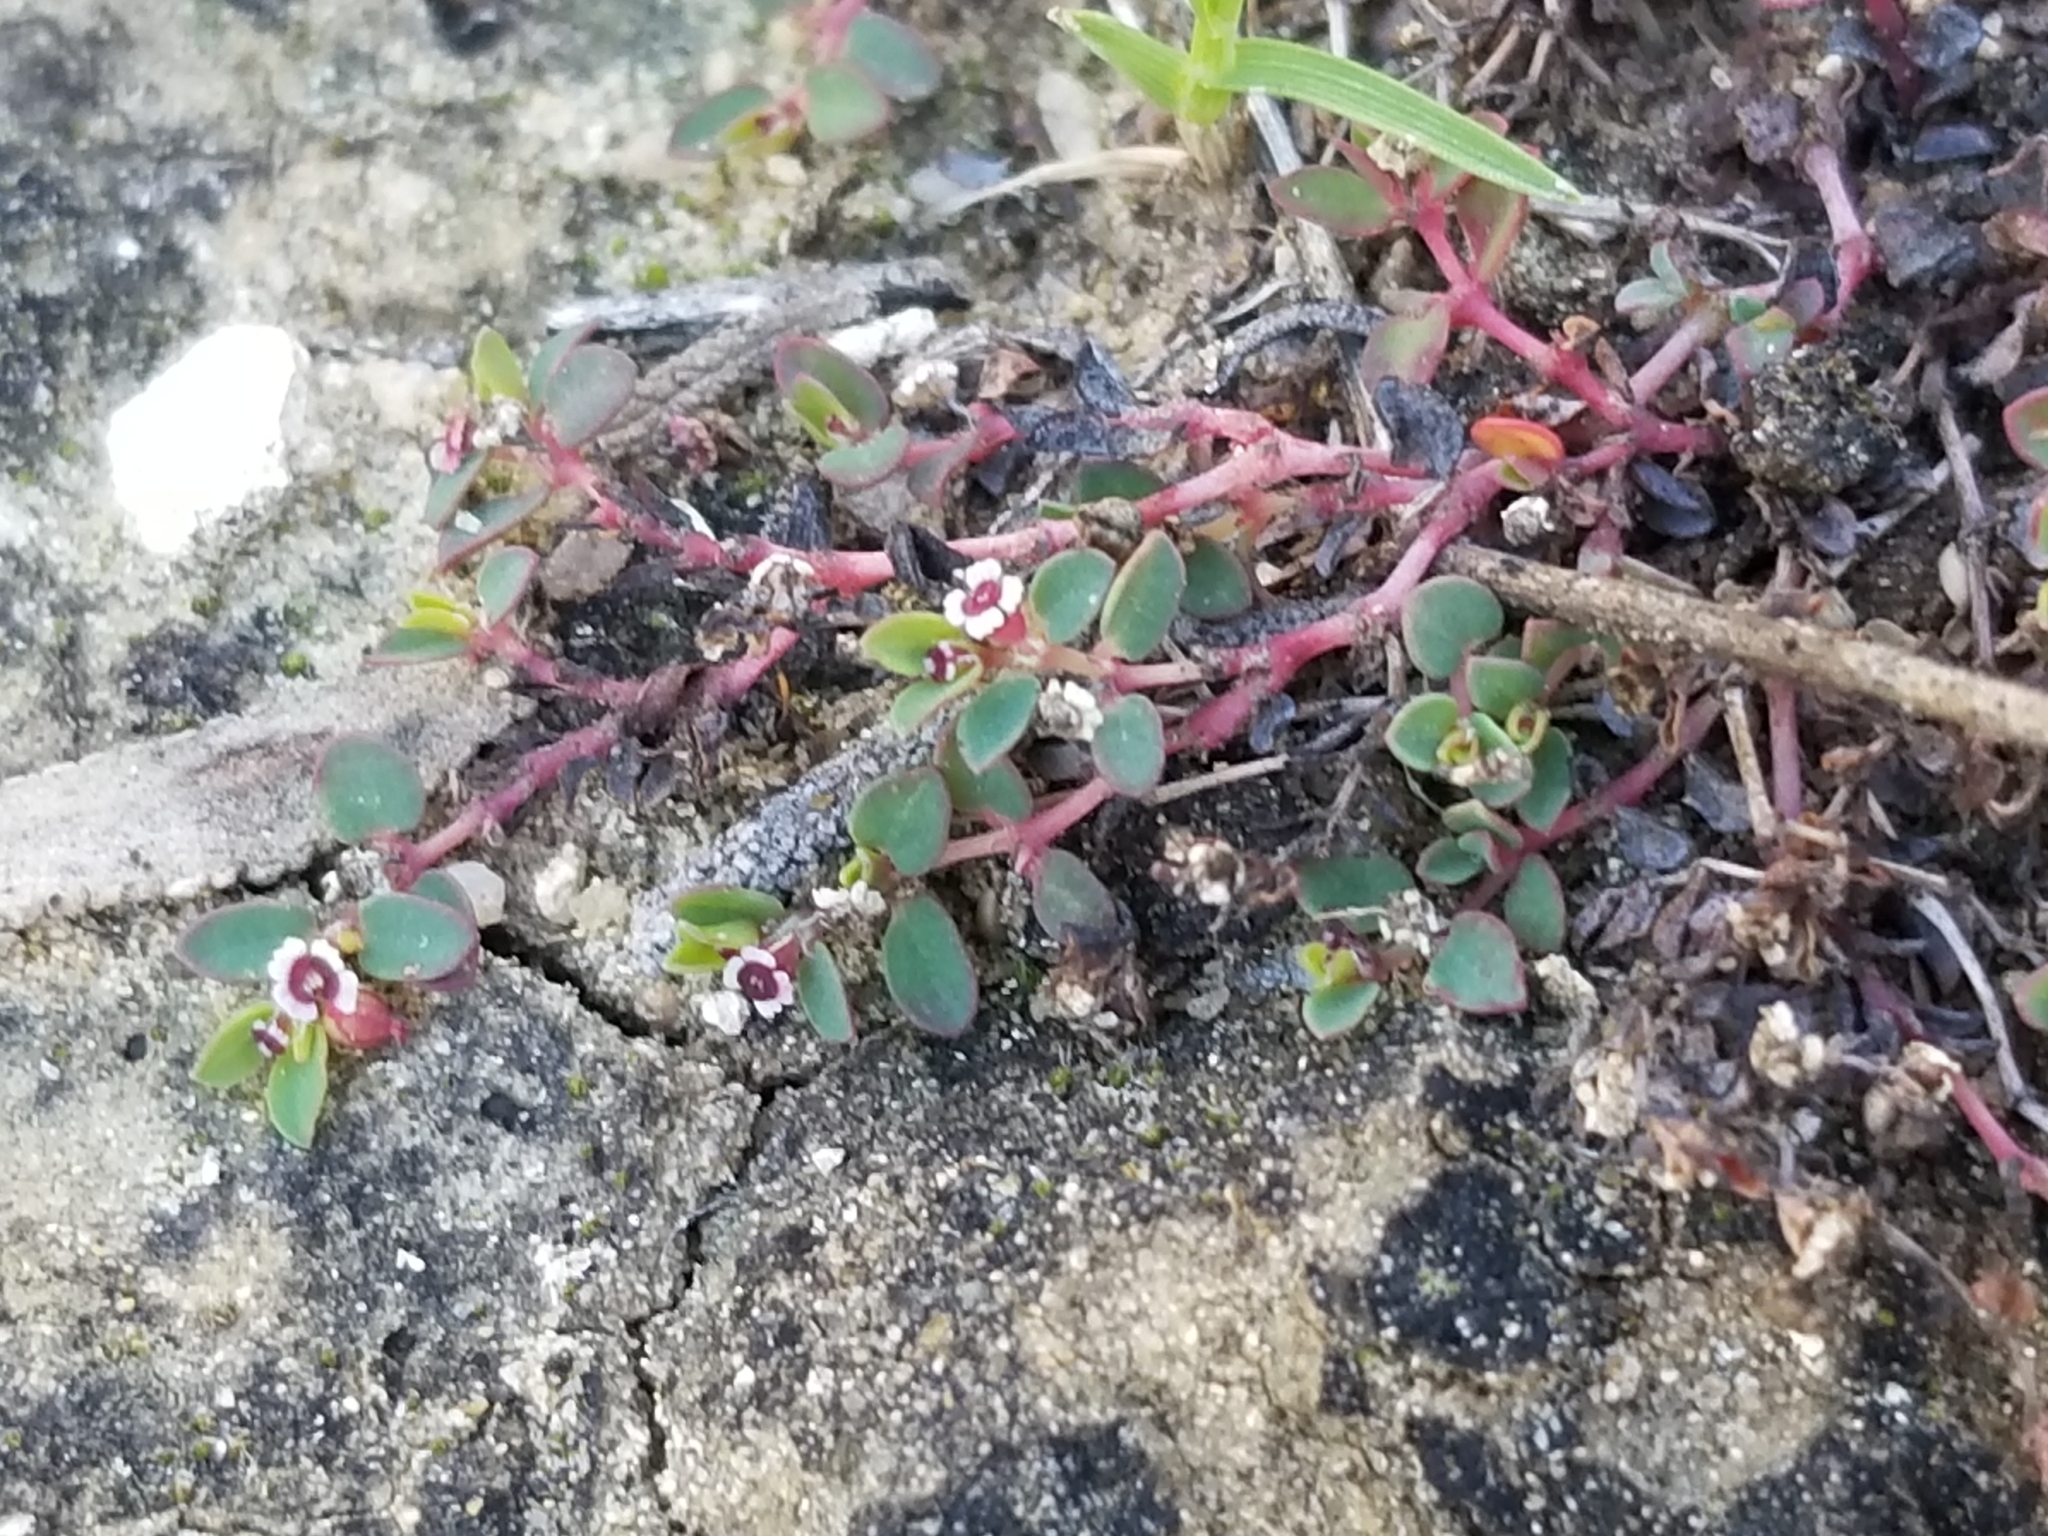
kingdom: Plantae
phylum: Tracheophyta
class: Magnoliopsida
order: Malpighiales
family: Euphorbiaceae
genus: Euphorbia
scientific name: Euphorbia polycarpa
